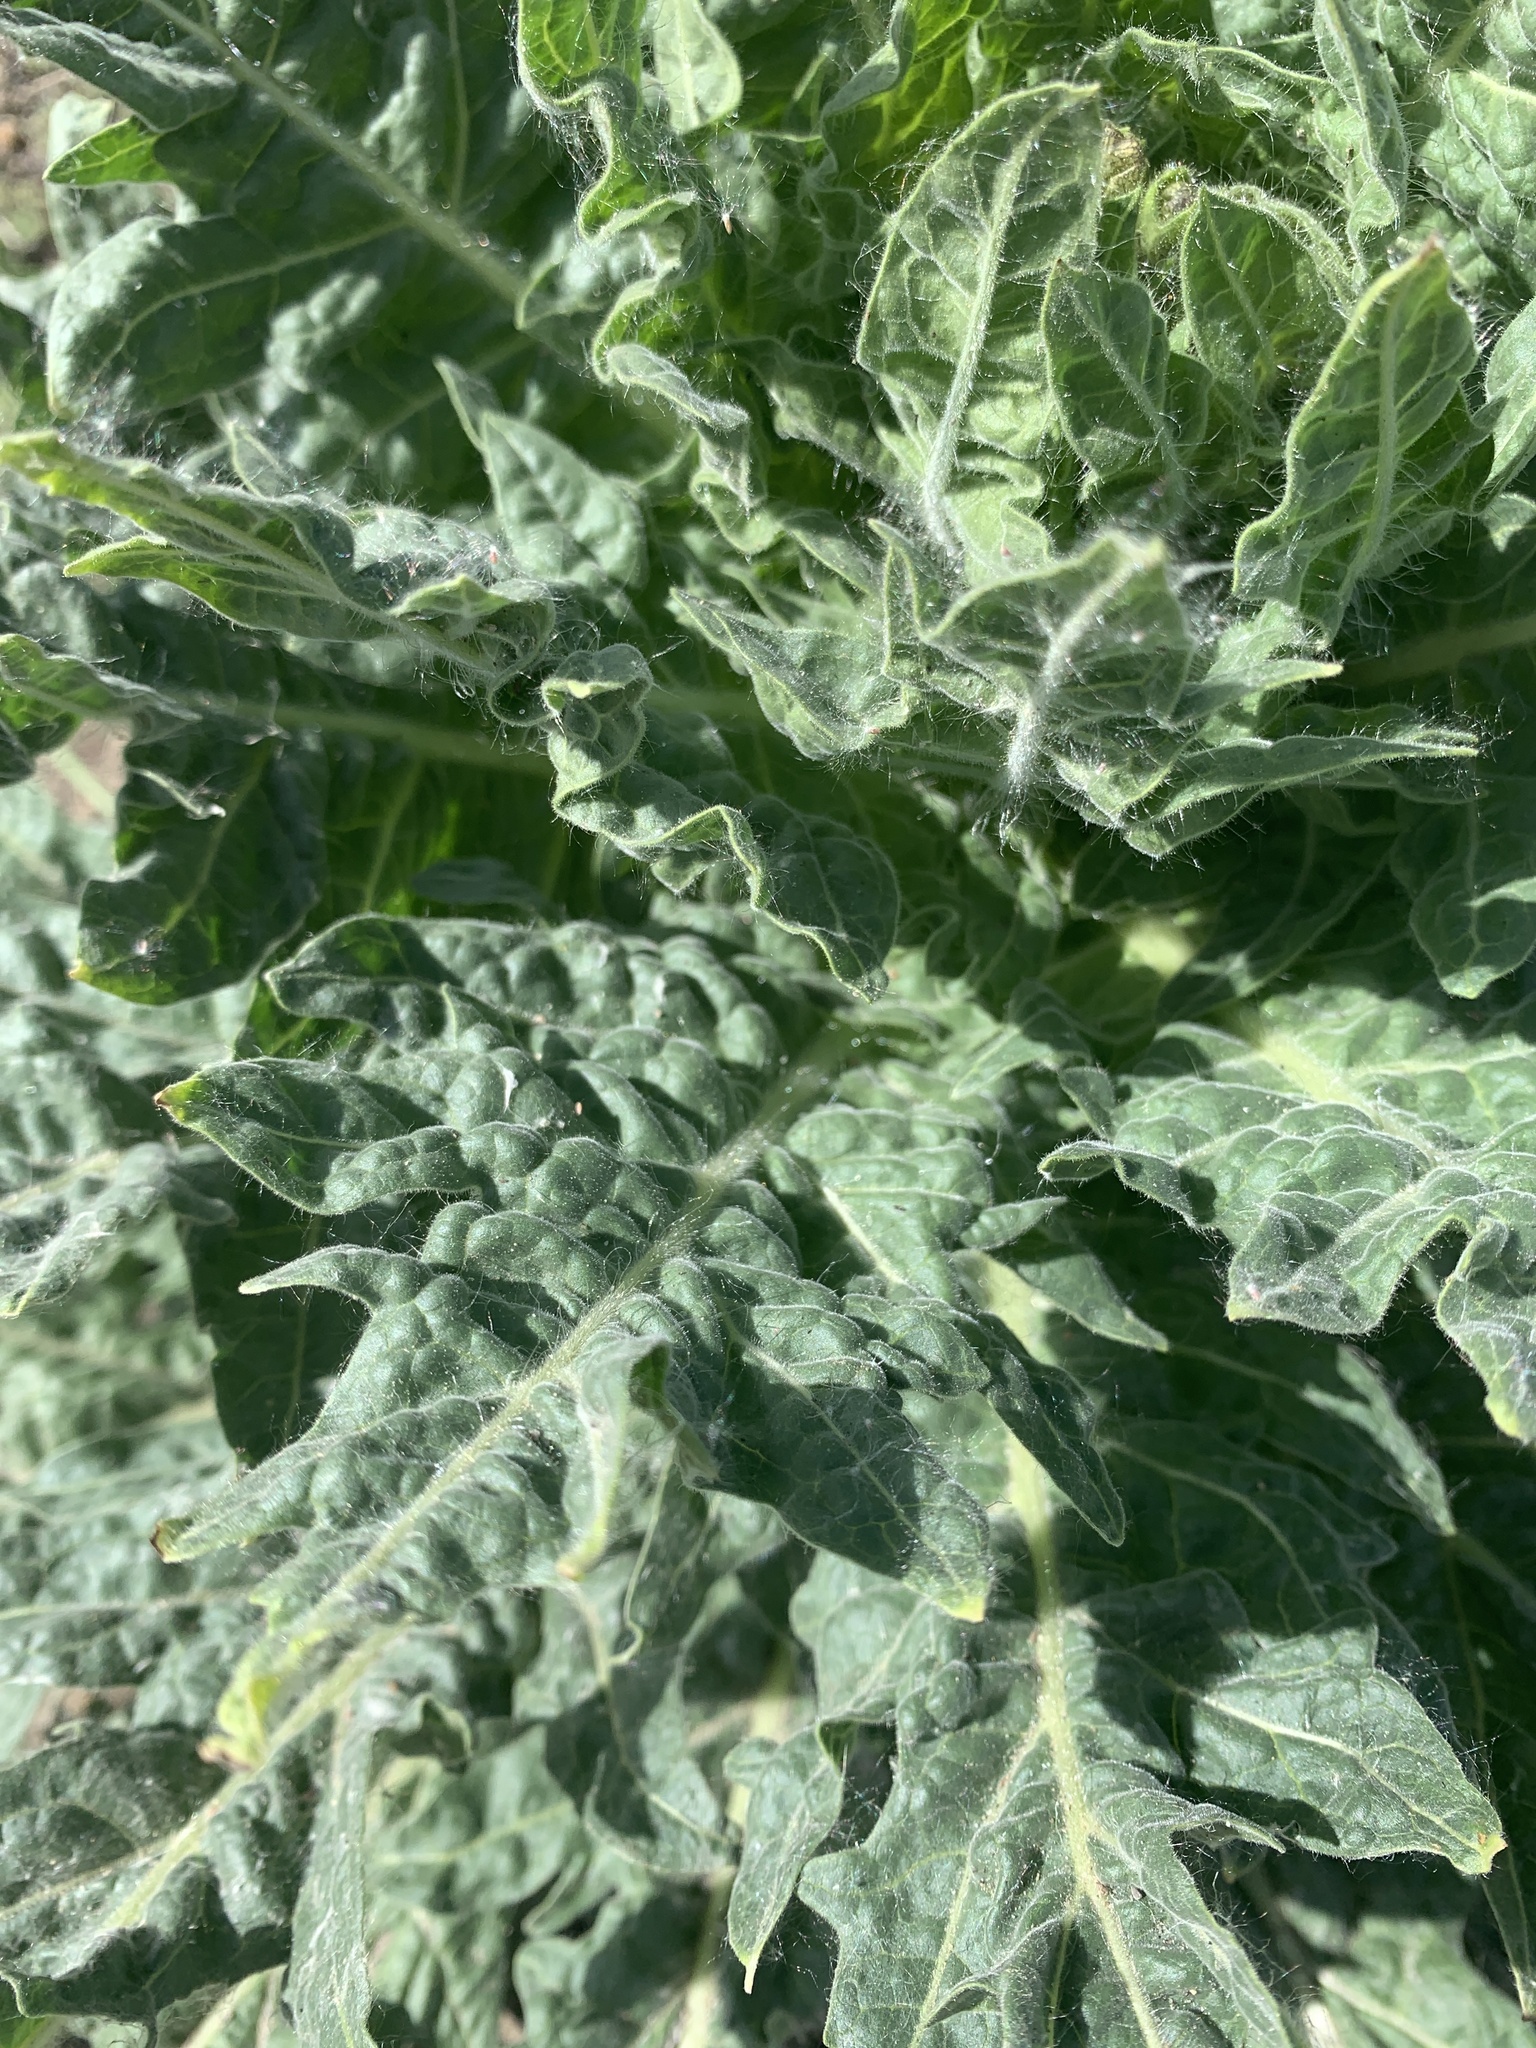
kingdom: Plantae
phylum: Tracheophyta
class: Magnoliopsida
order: Solanales
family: Solanaceae
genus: Hyoscyamus
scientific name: Hyoscyamus niger
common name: Henbane
